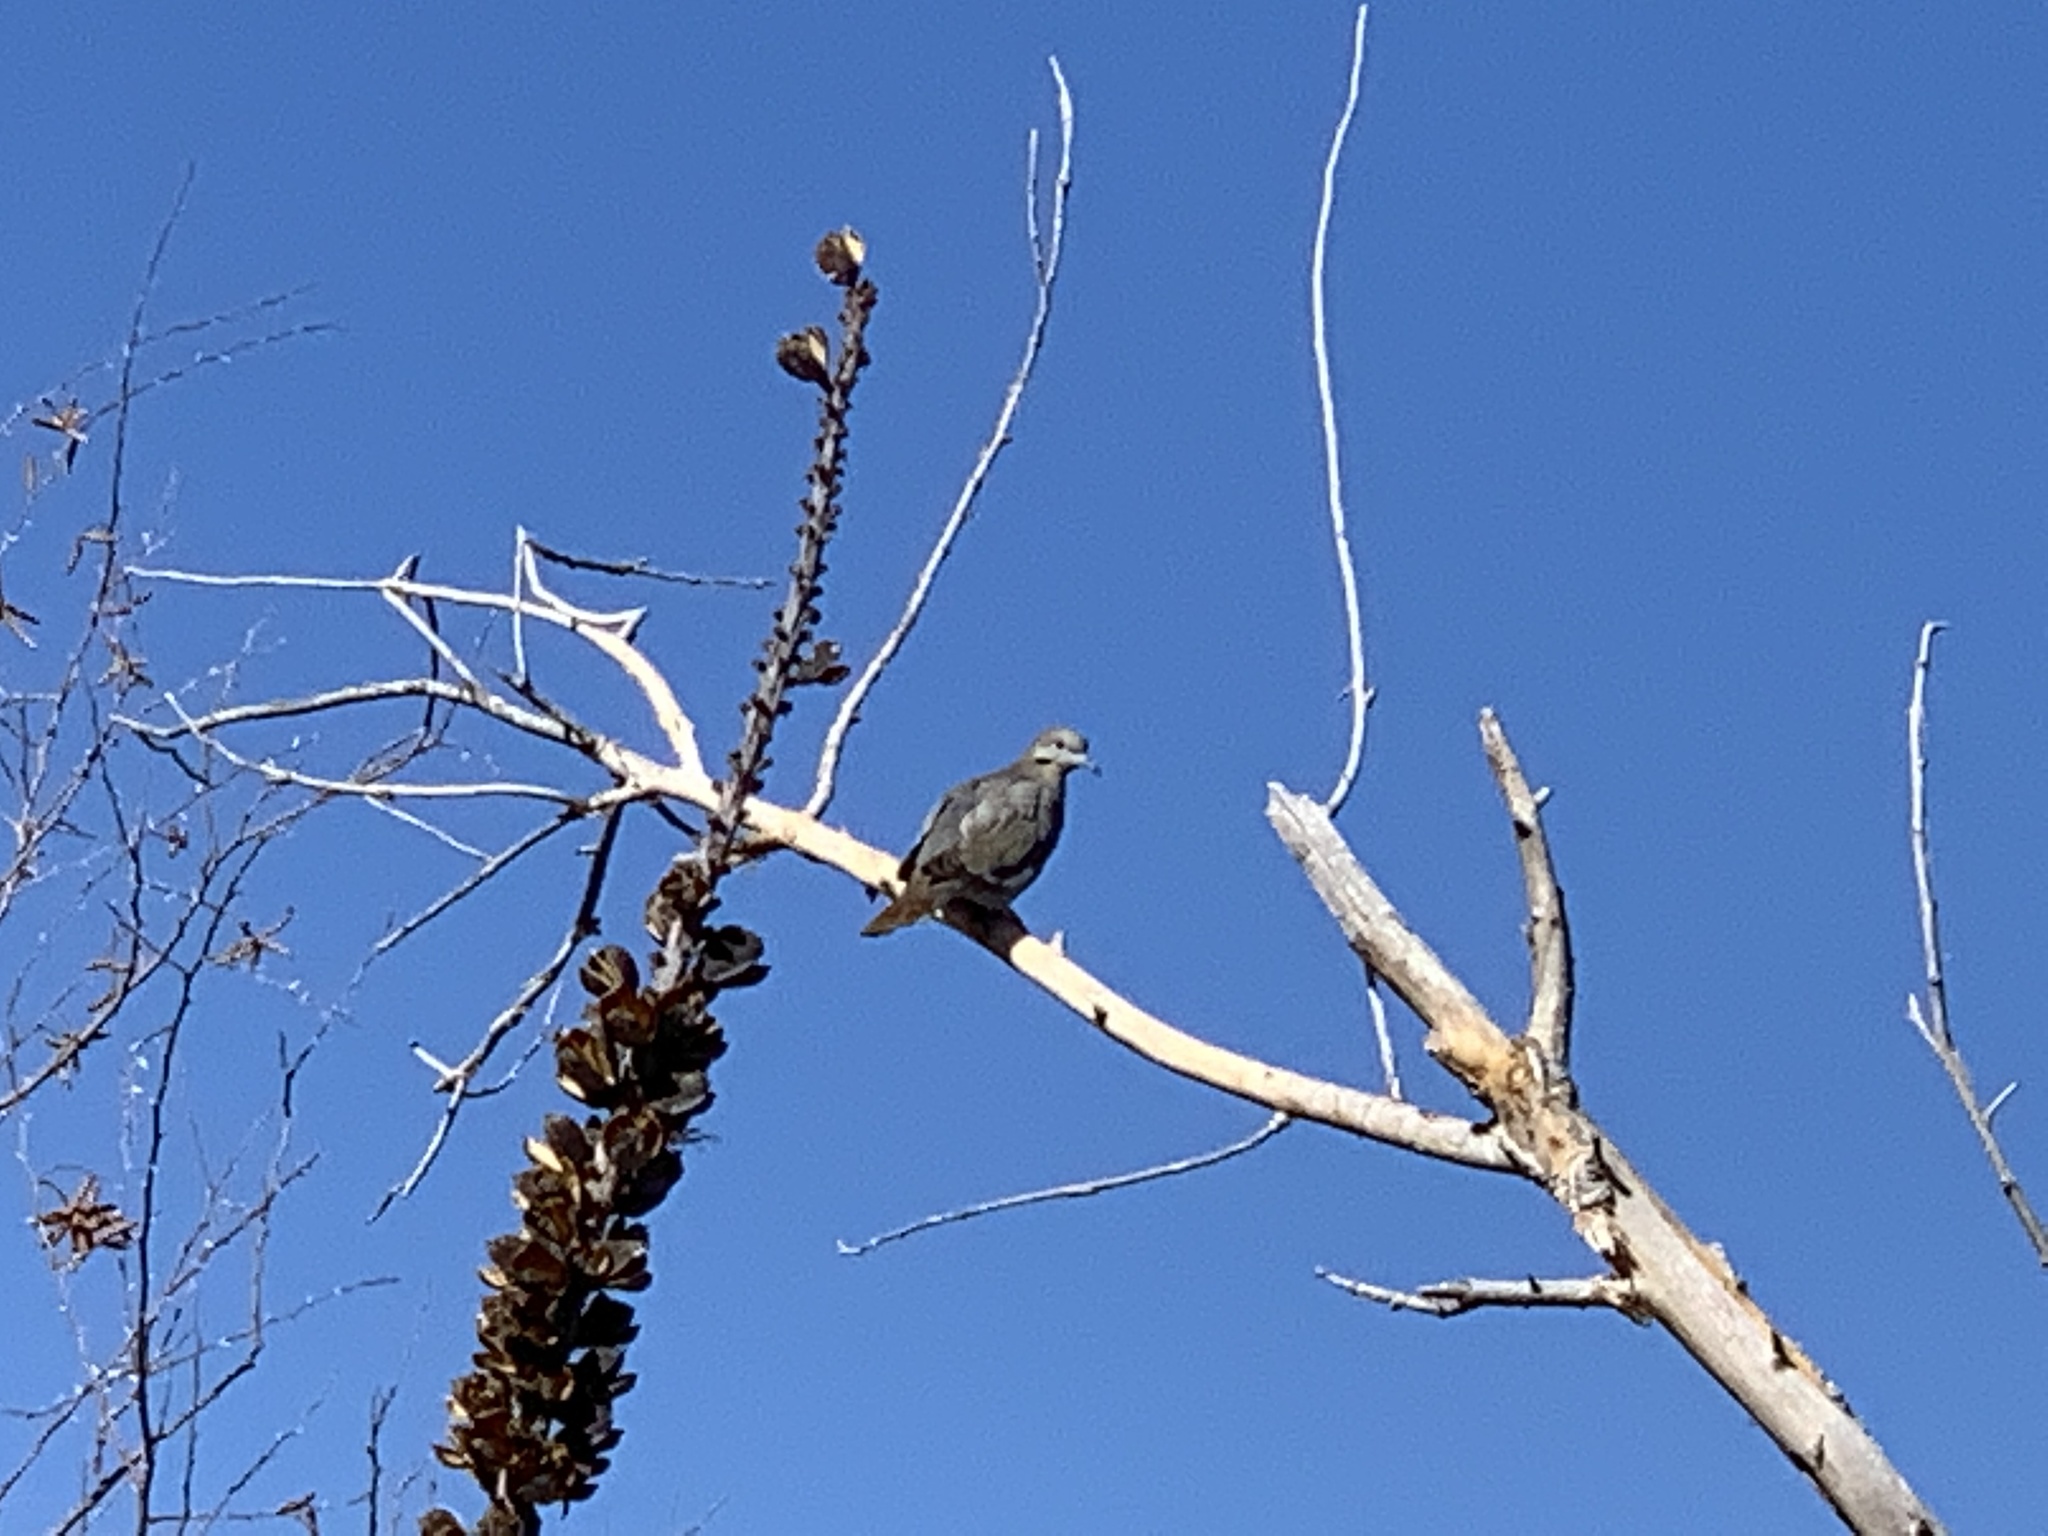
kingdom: Animalia
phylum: Chordata
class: Aves
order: Columbiformes
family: Columbidae
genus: Zenaida
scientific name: Zenaida asiatica
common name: White-winged dove
